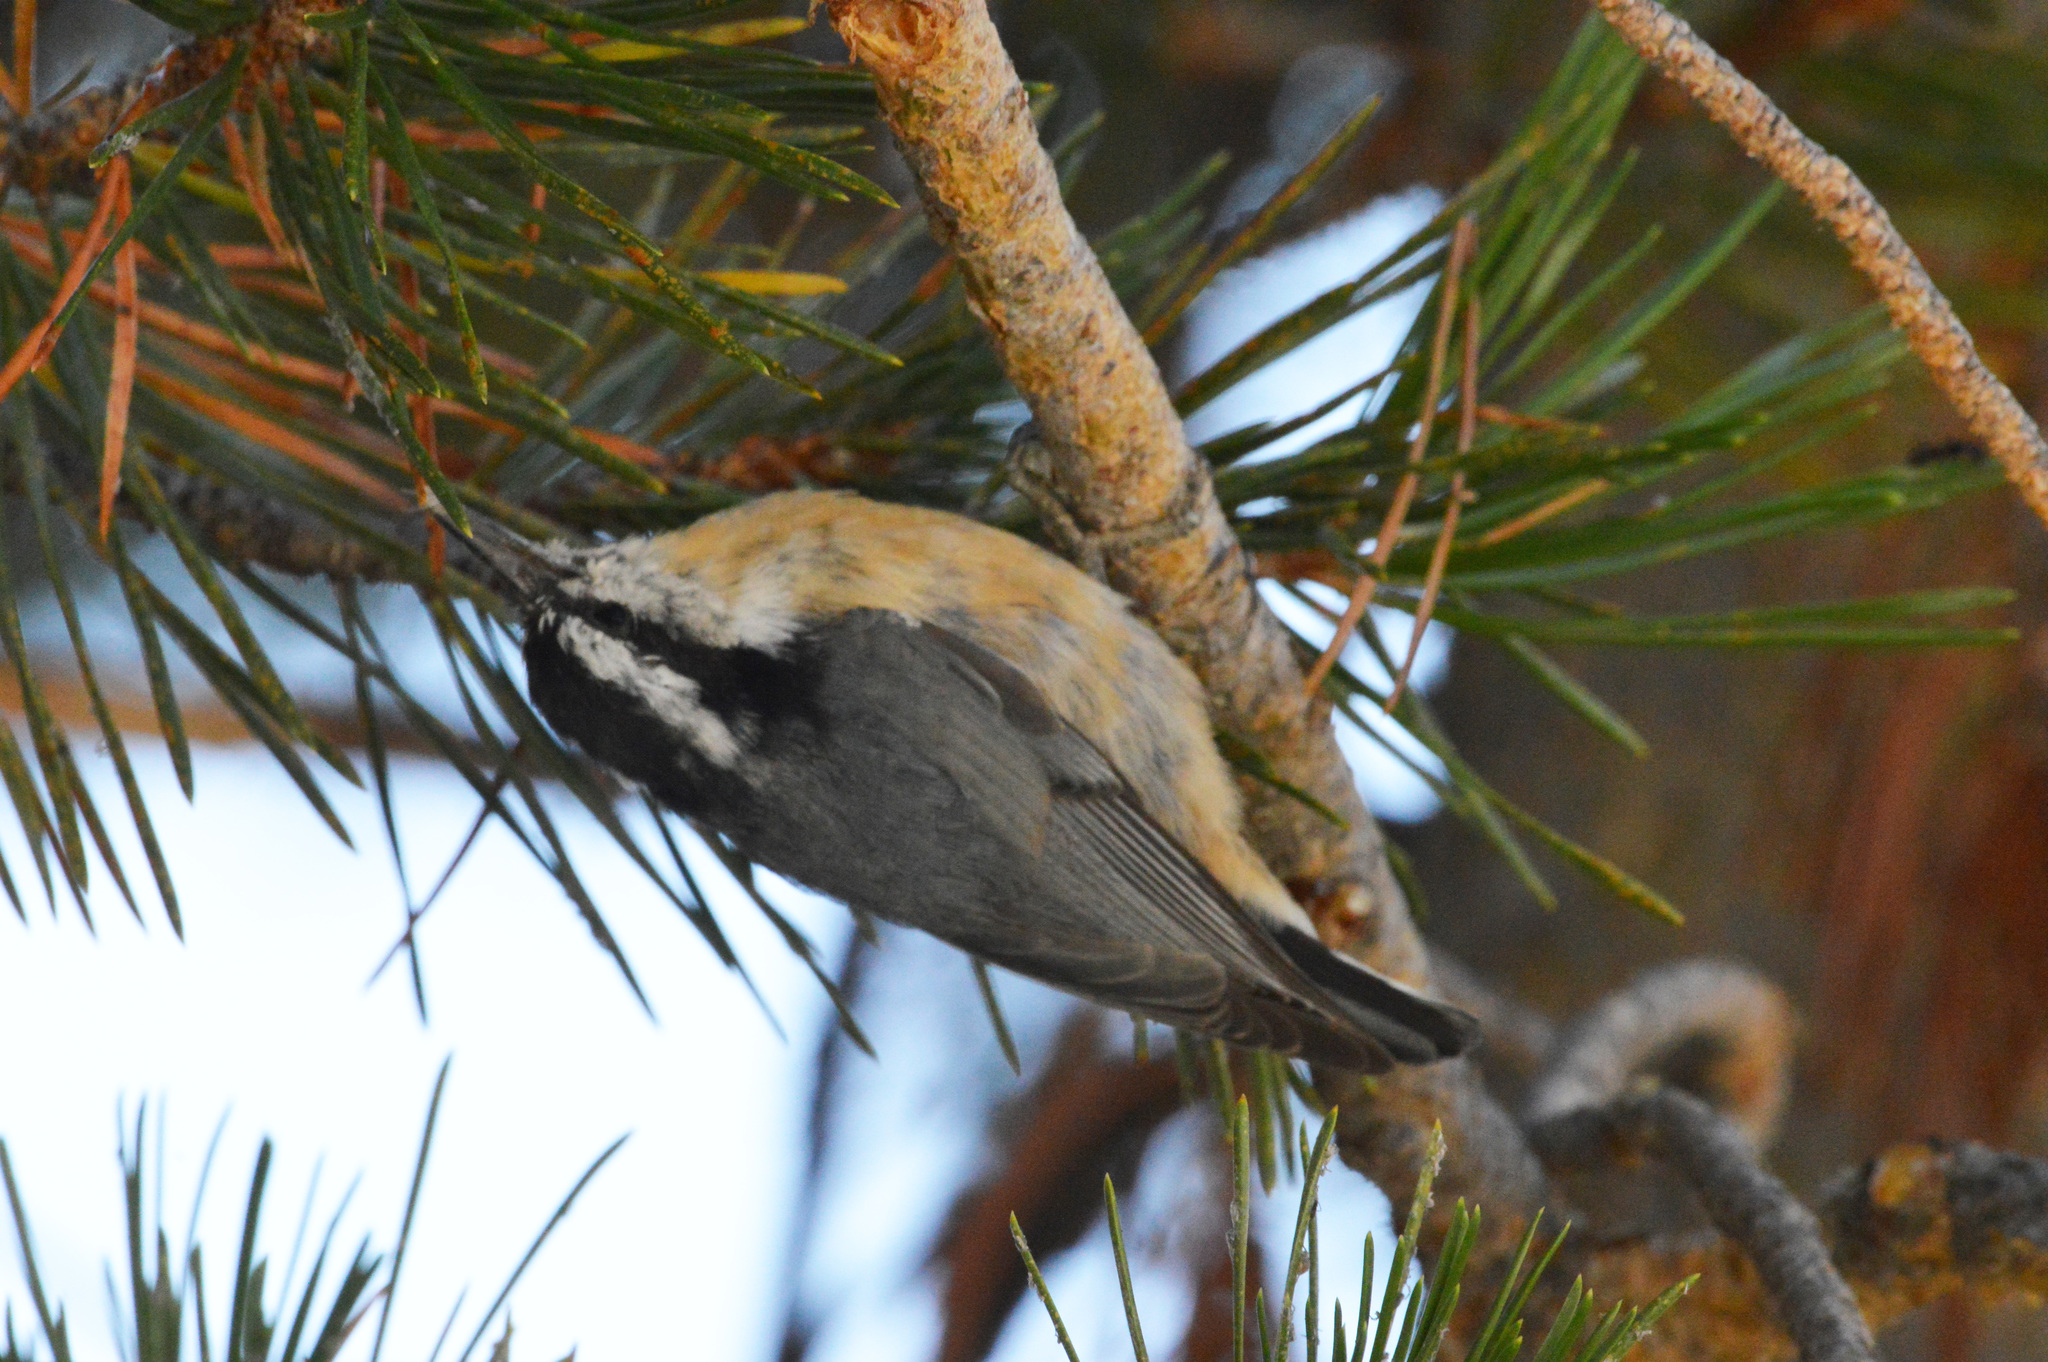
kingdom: Animalia
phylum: Chordata
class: Aves
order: Passeriformes
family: Sittidae
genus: Sitta
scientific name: Sitta canadensis
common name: Red-breasted nuthatch
